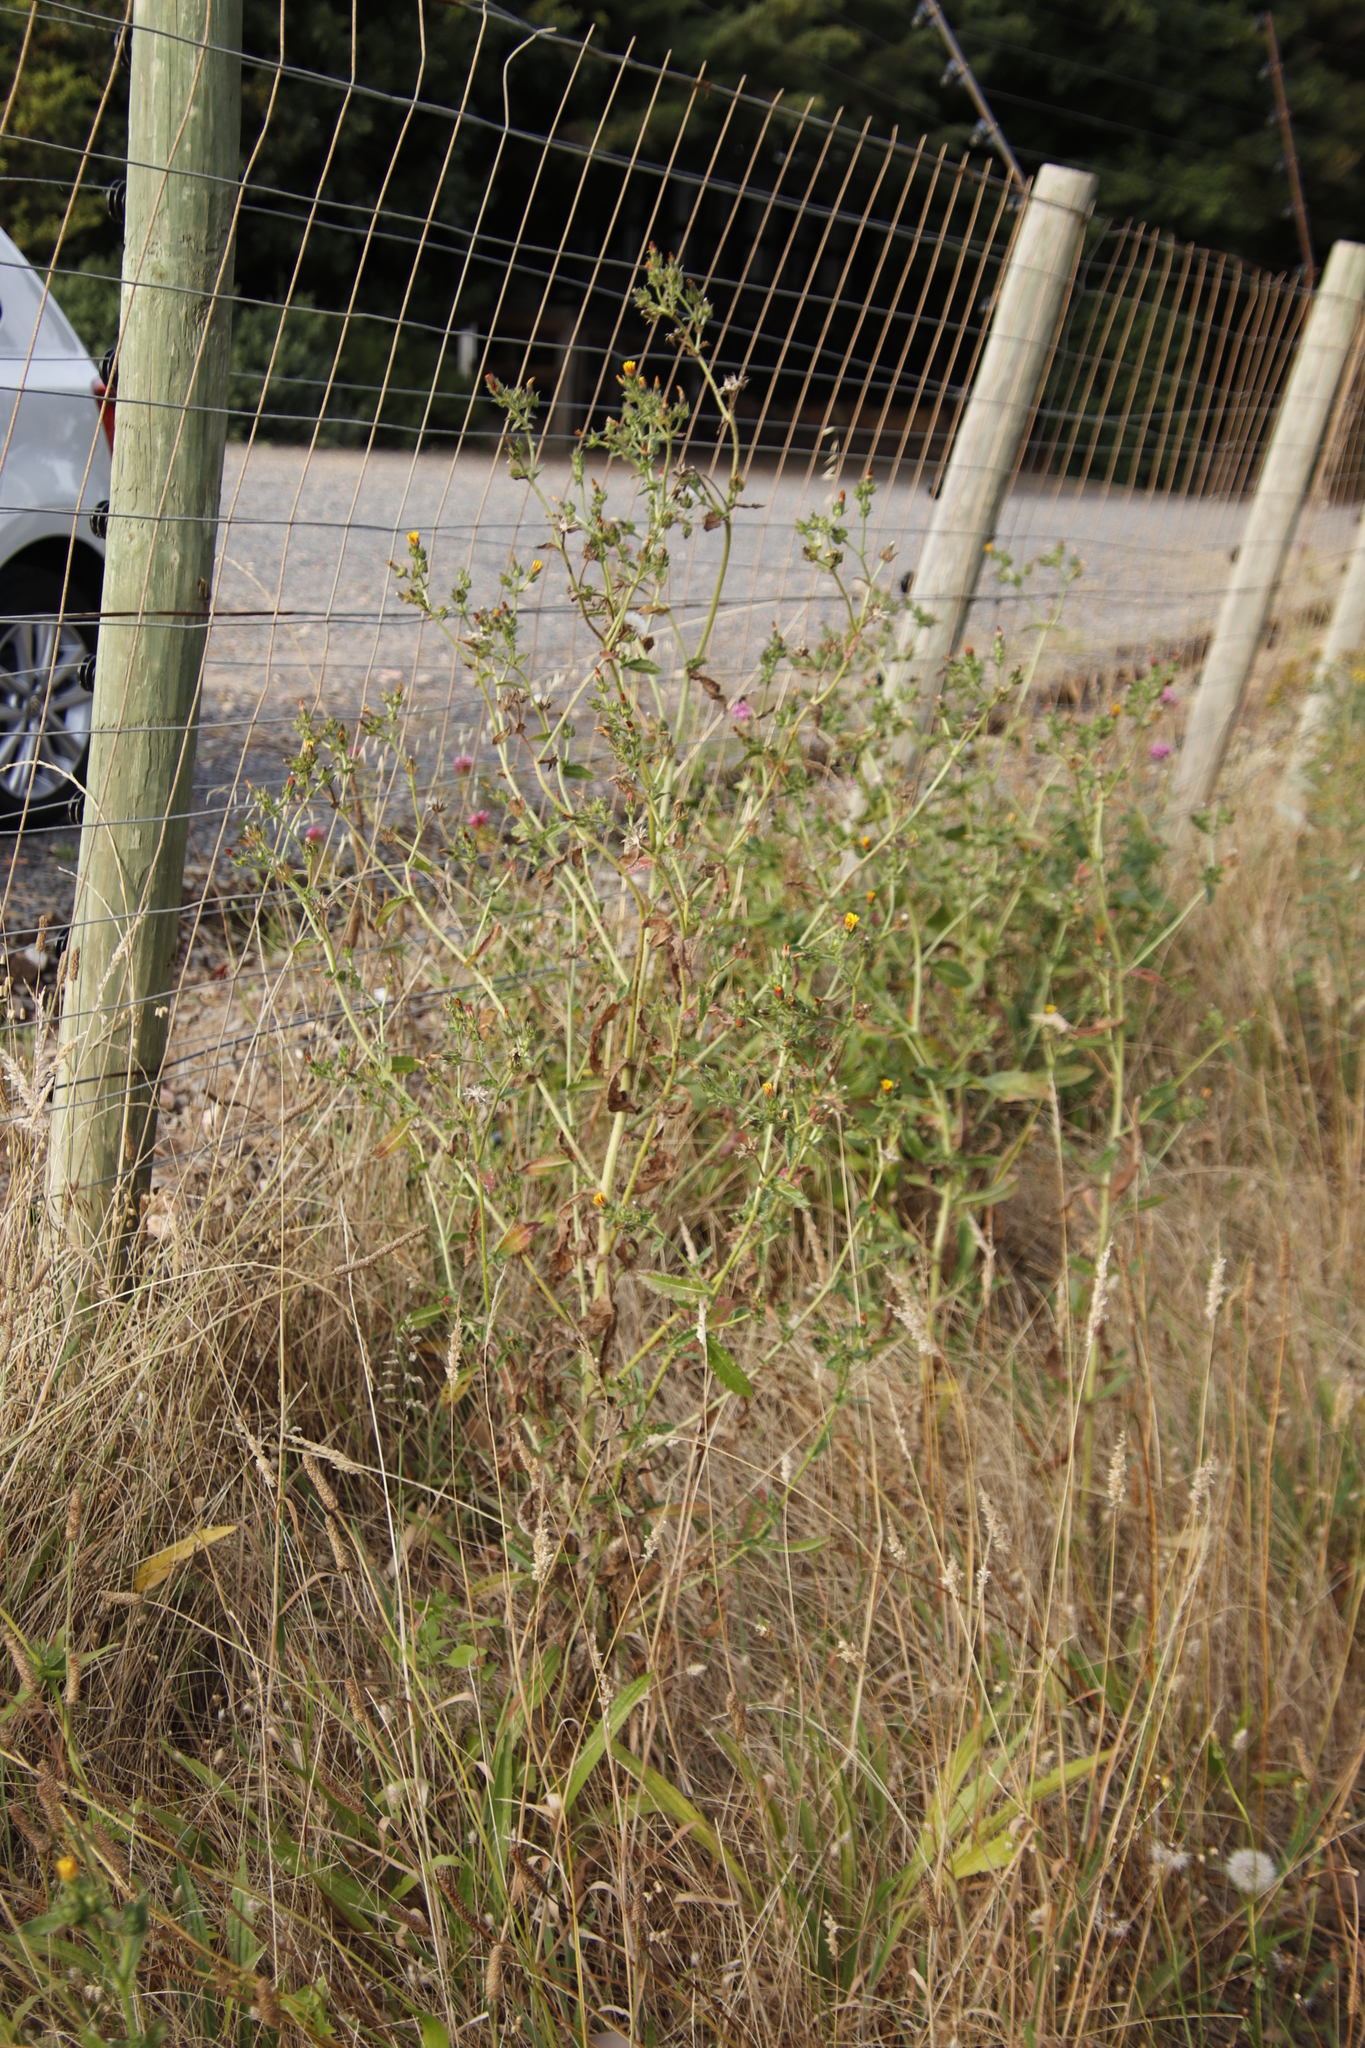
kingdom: Plantae
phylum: Tracheophyta
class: Magnoliopsida
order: Asterales
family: Asteraceae
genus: Helminthotheca
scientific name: Helminthotheca echioides
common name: Ox-tongue
